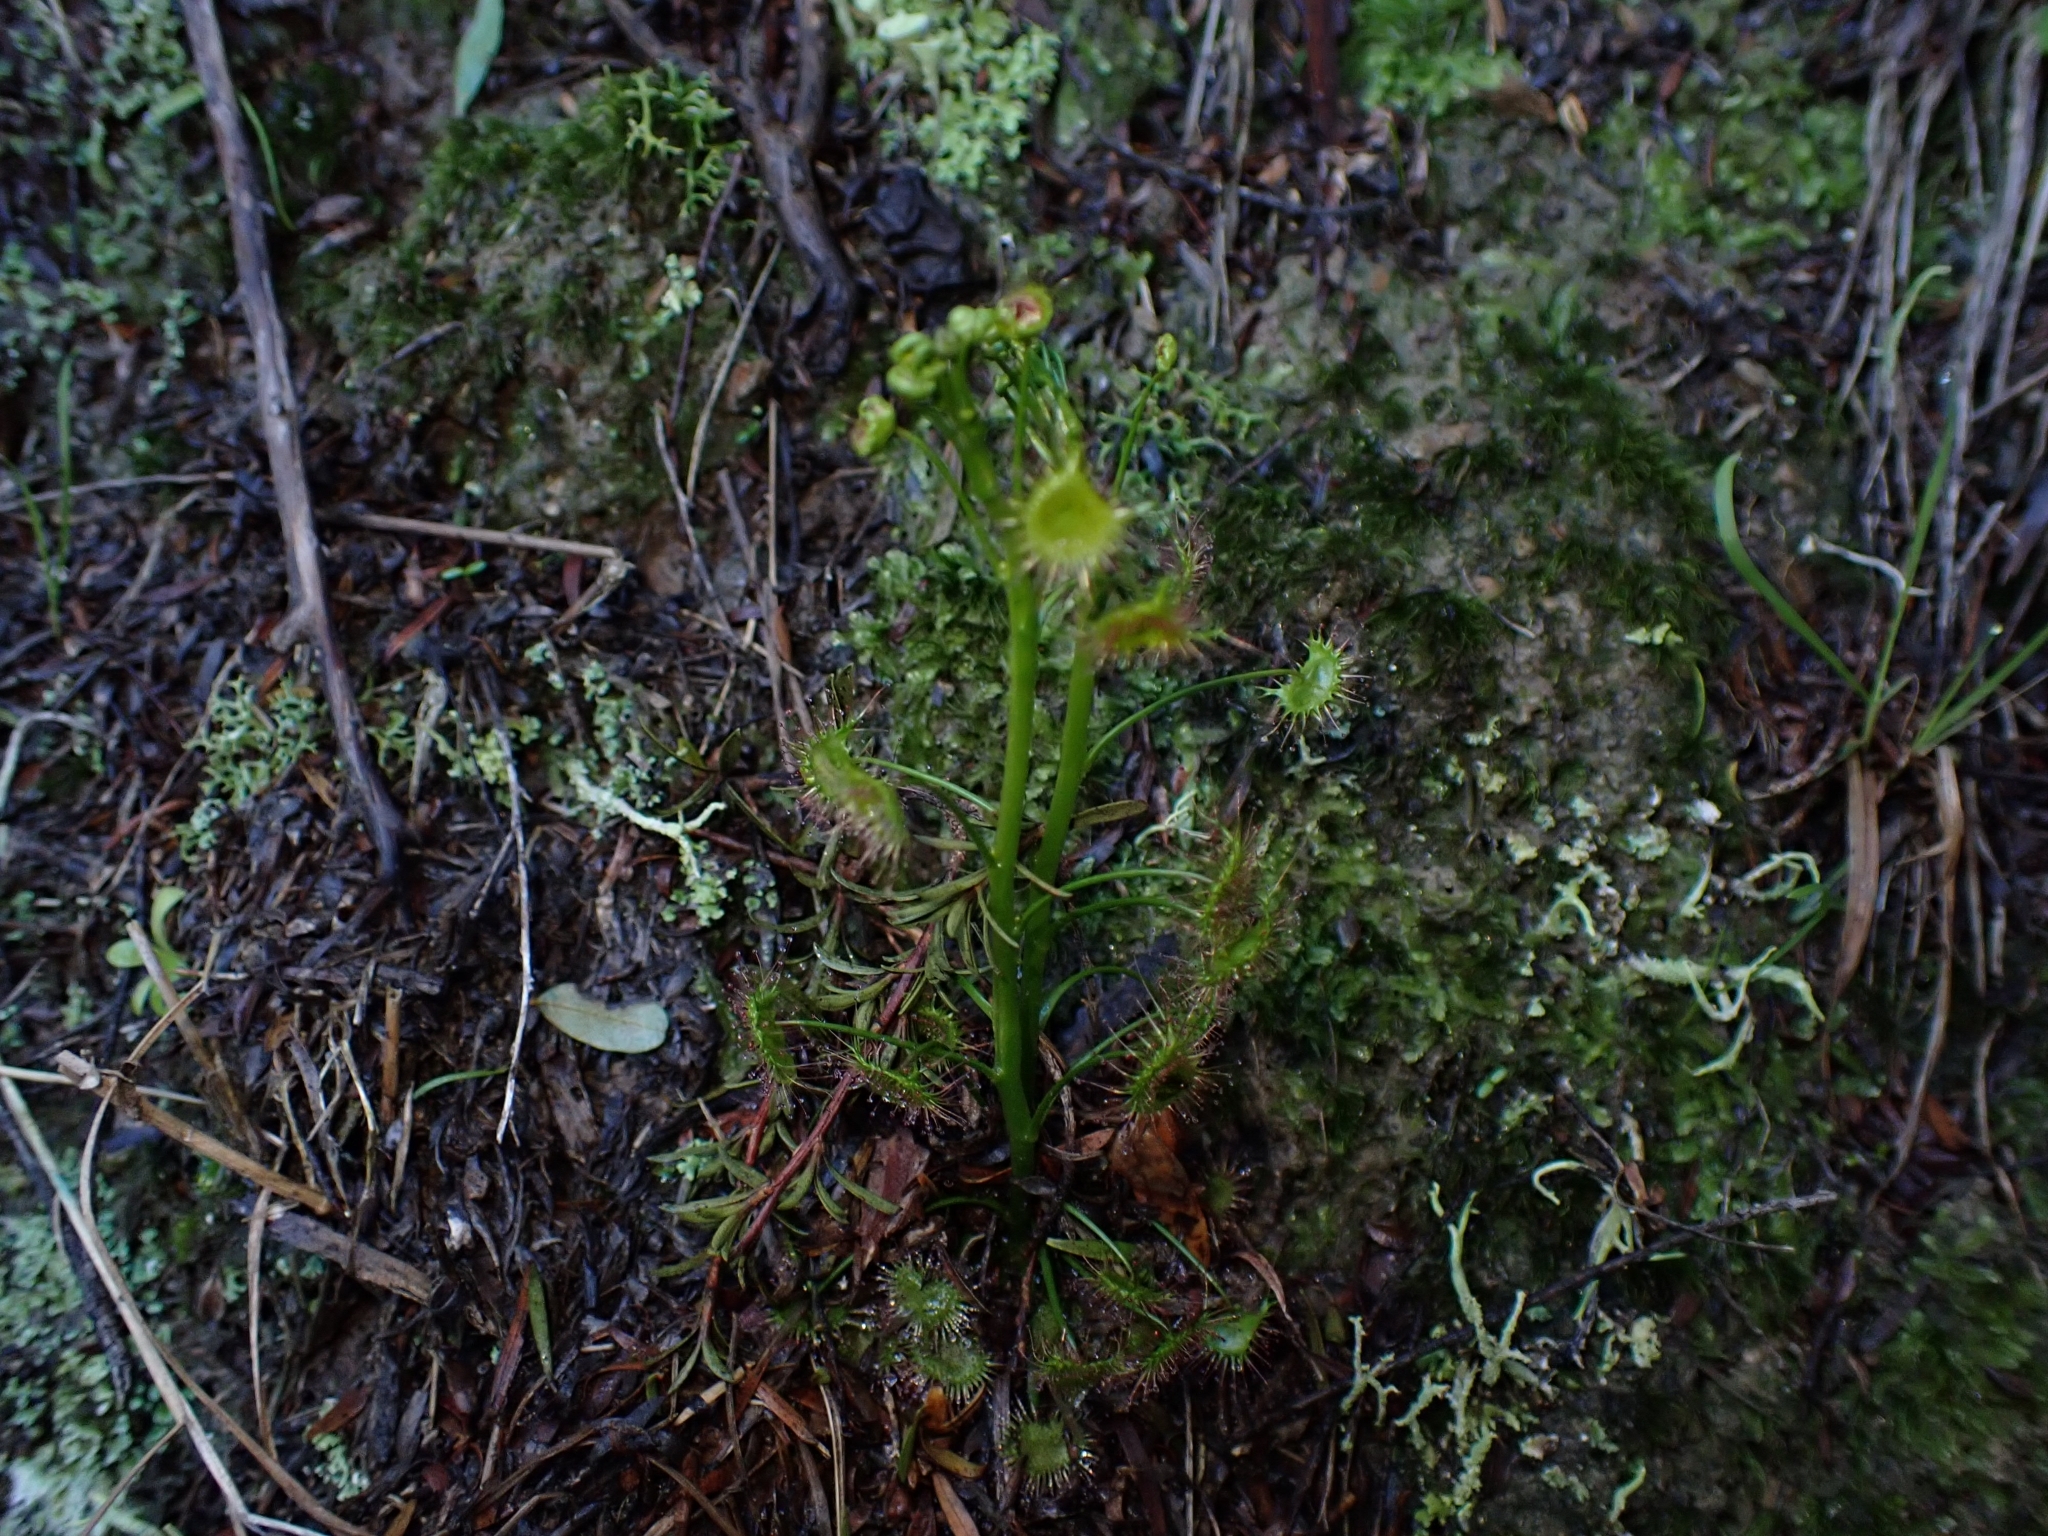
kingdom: Plantae
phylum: Tracheophyta
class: Magnoliopsida
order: Caryophyllales
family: Droseraceae
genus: Drosera
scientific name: Drosera peltata
